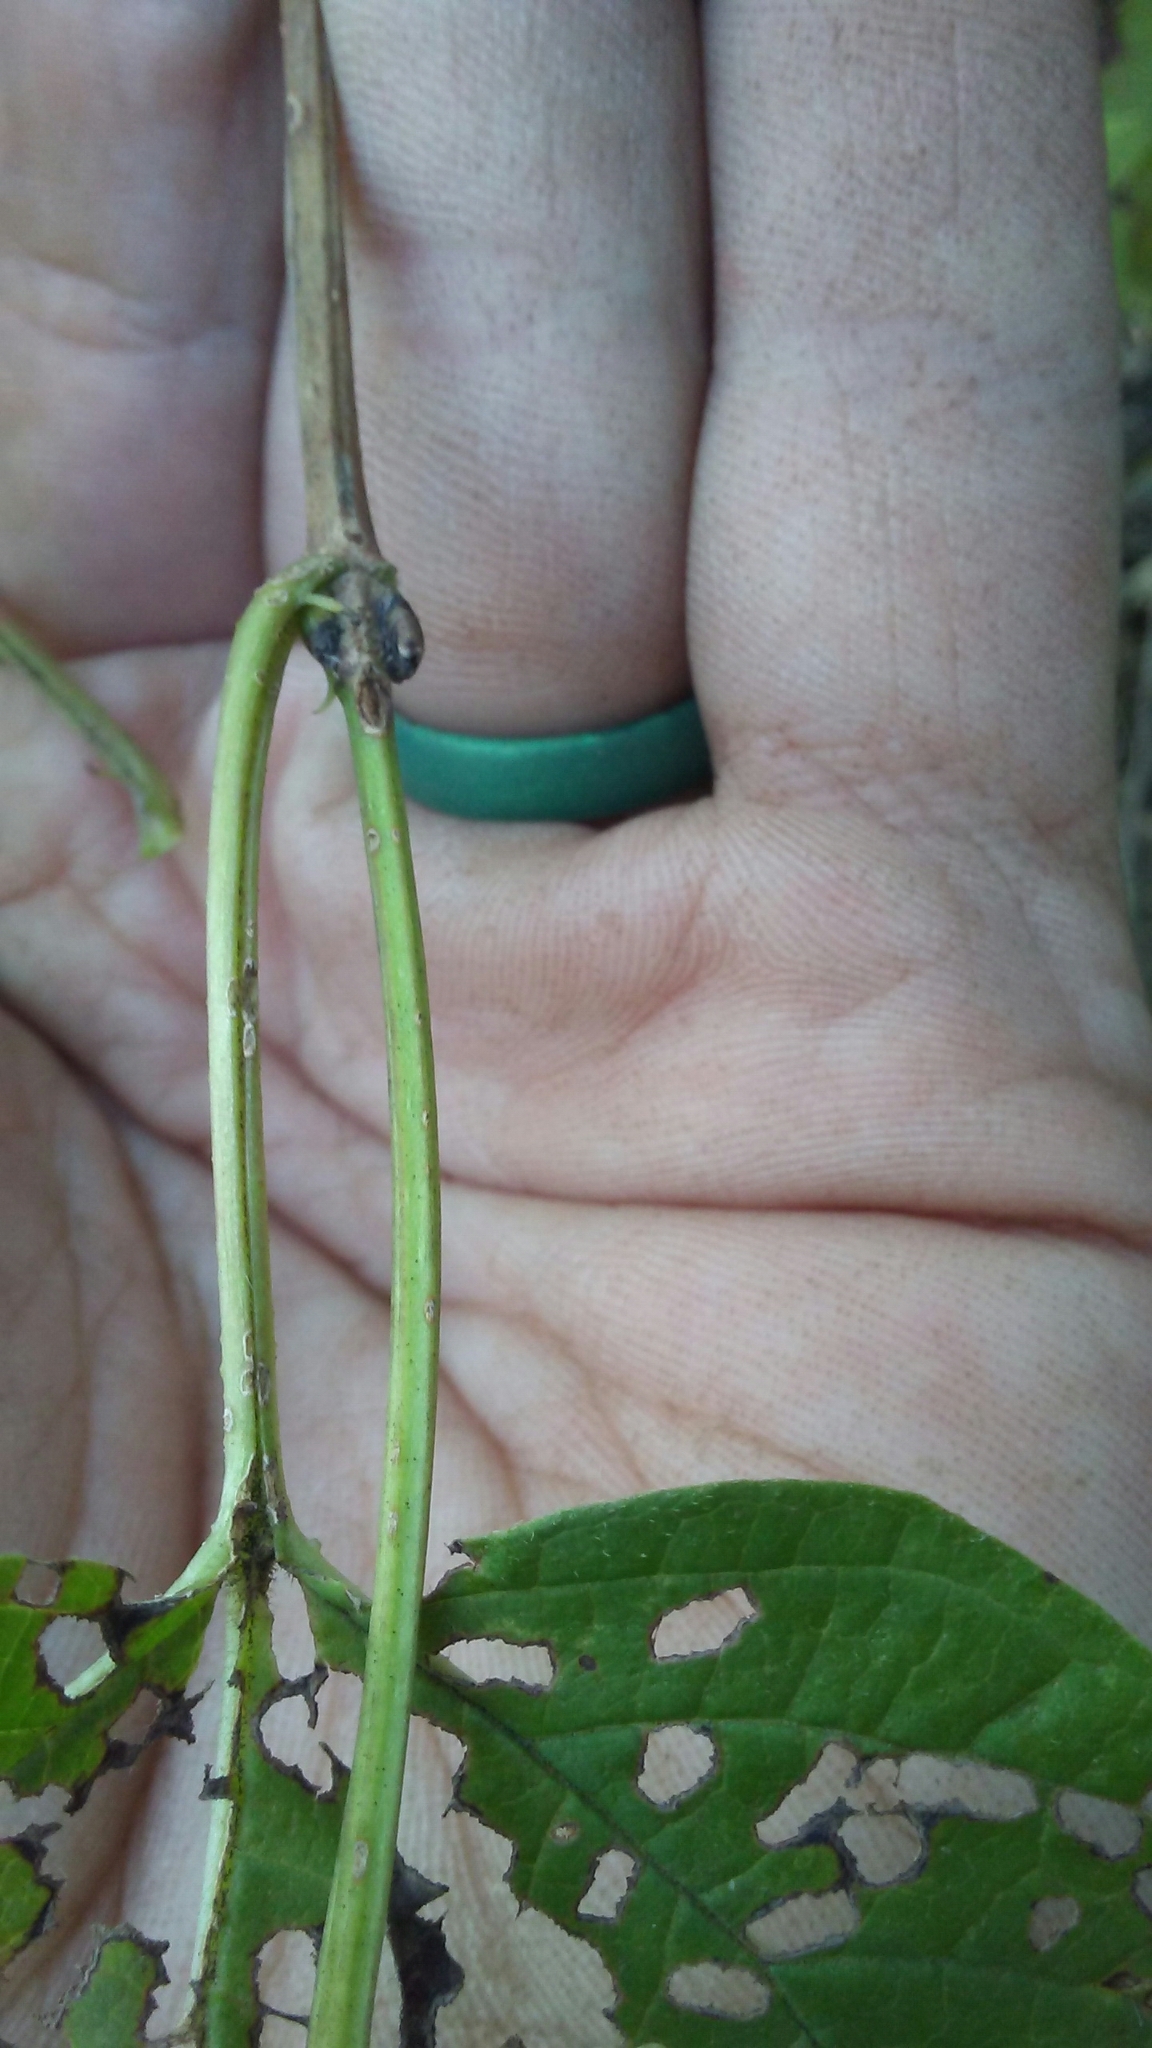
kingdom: Plantae
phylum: Tracheophyta
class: Magnoliopsida
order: Dipsacales
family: Viburnaceae
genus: Viburnum
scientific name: Viburnum opulus
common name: Guelder-rose
